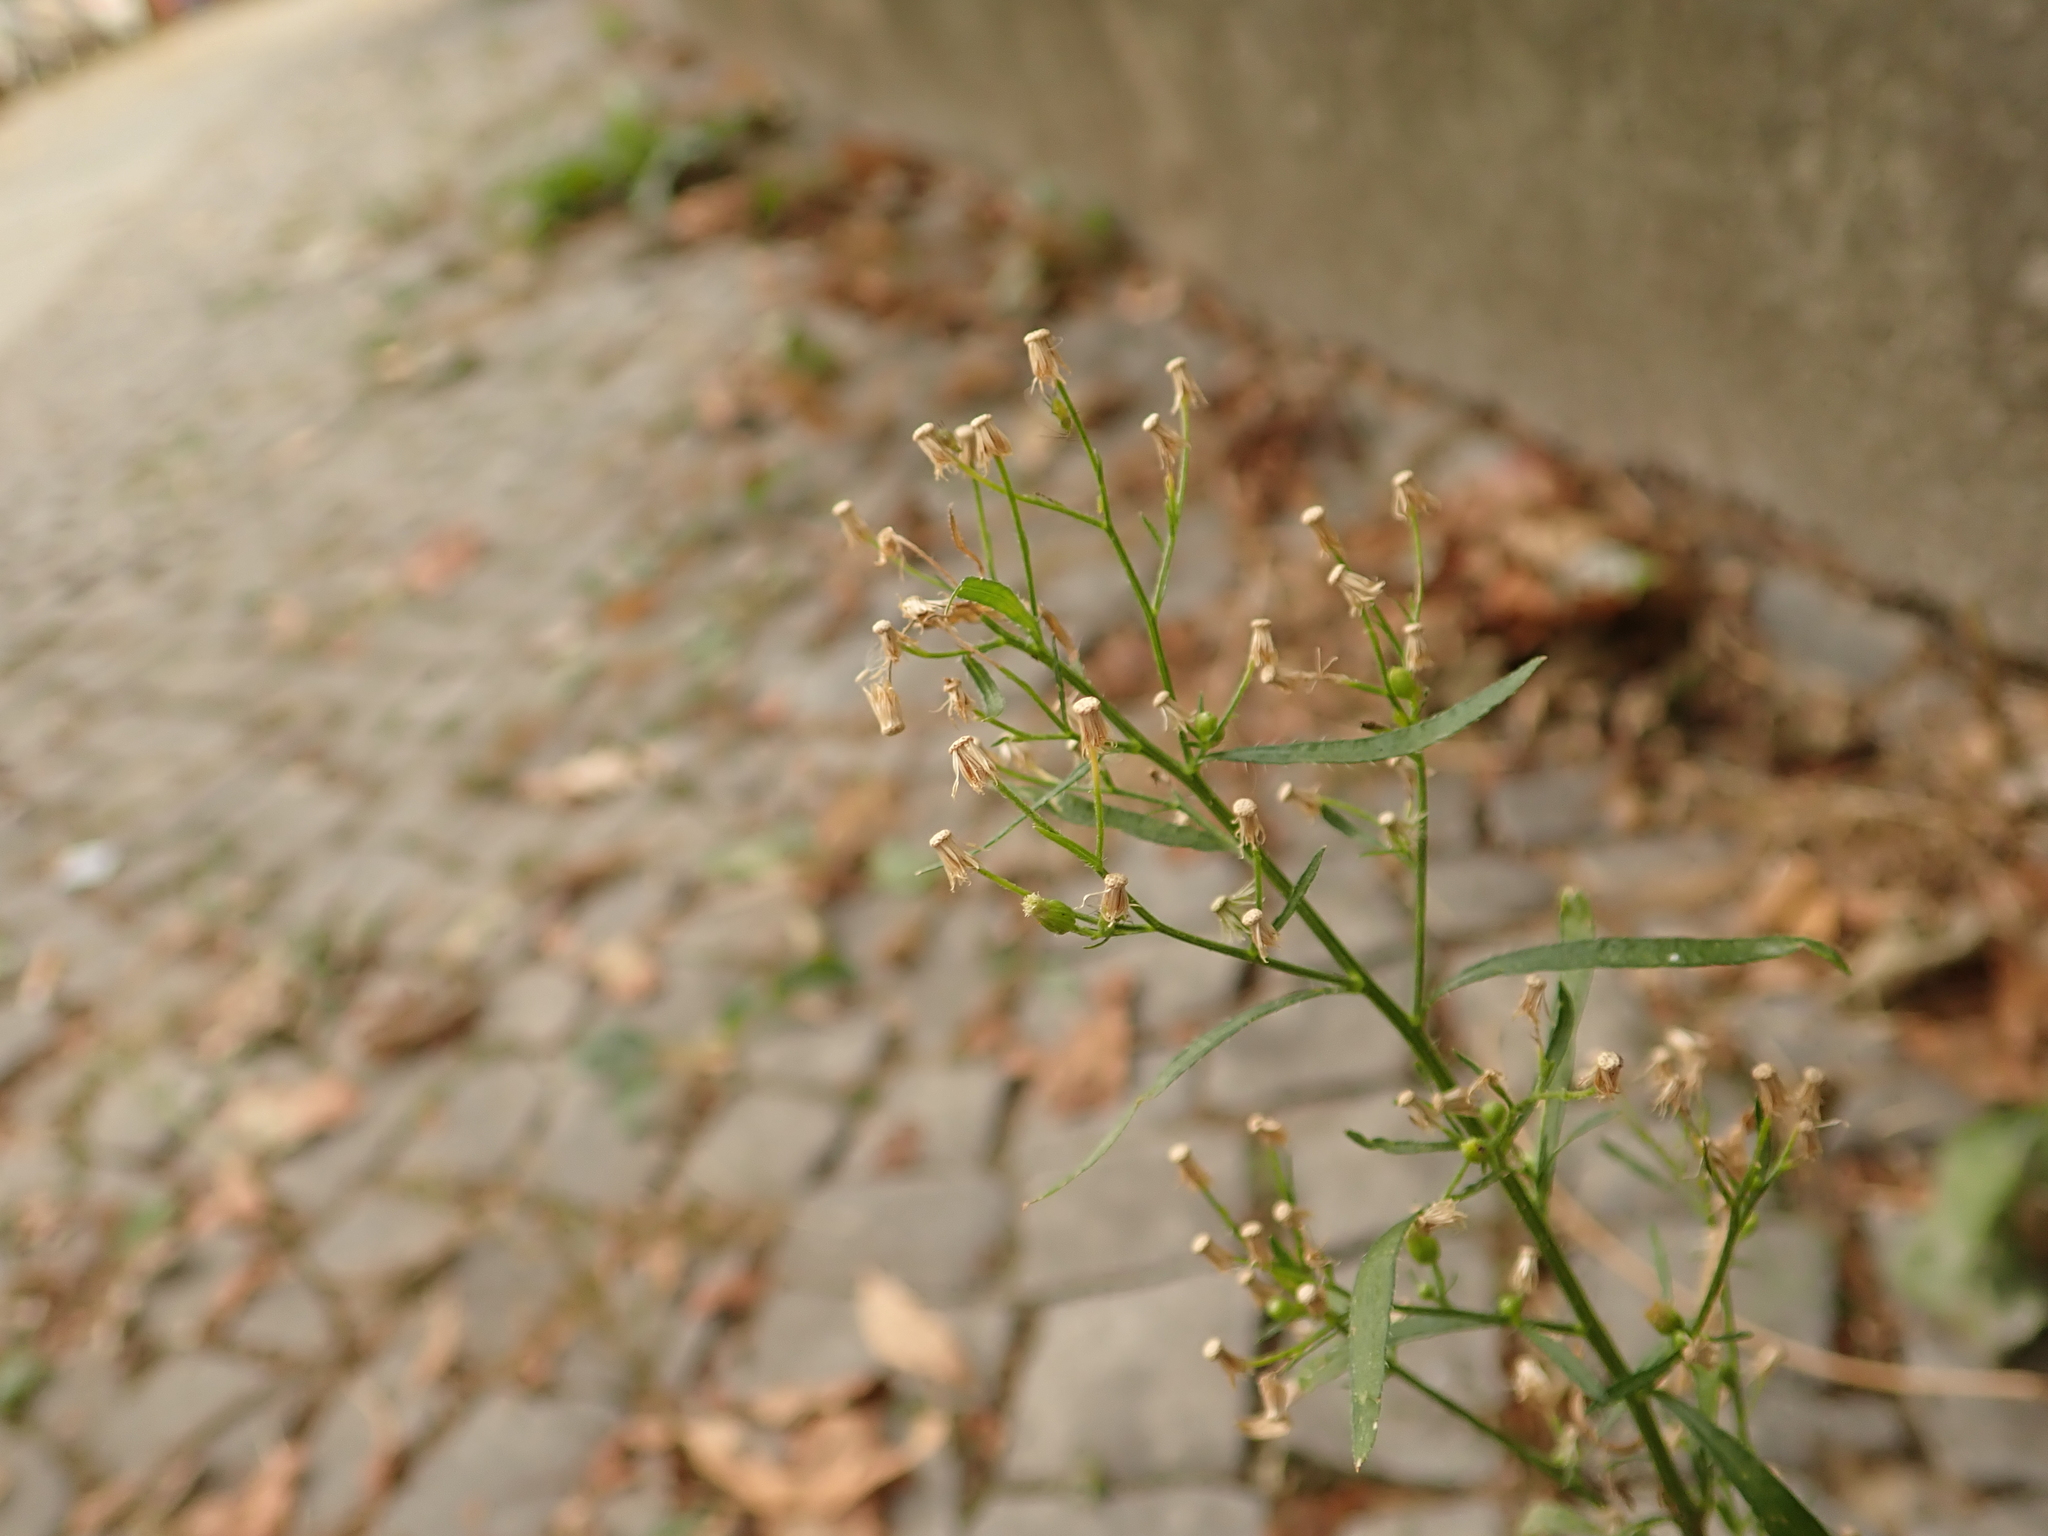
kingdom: Plantae
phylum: Tracheophyta
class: Magnoliopsida
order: Asterales
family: Asteraceae
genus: Erigeron
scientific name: Erigeron canadensis
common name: Canadian fleabane
